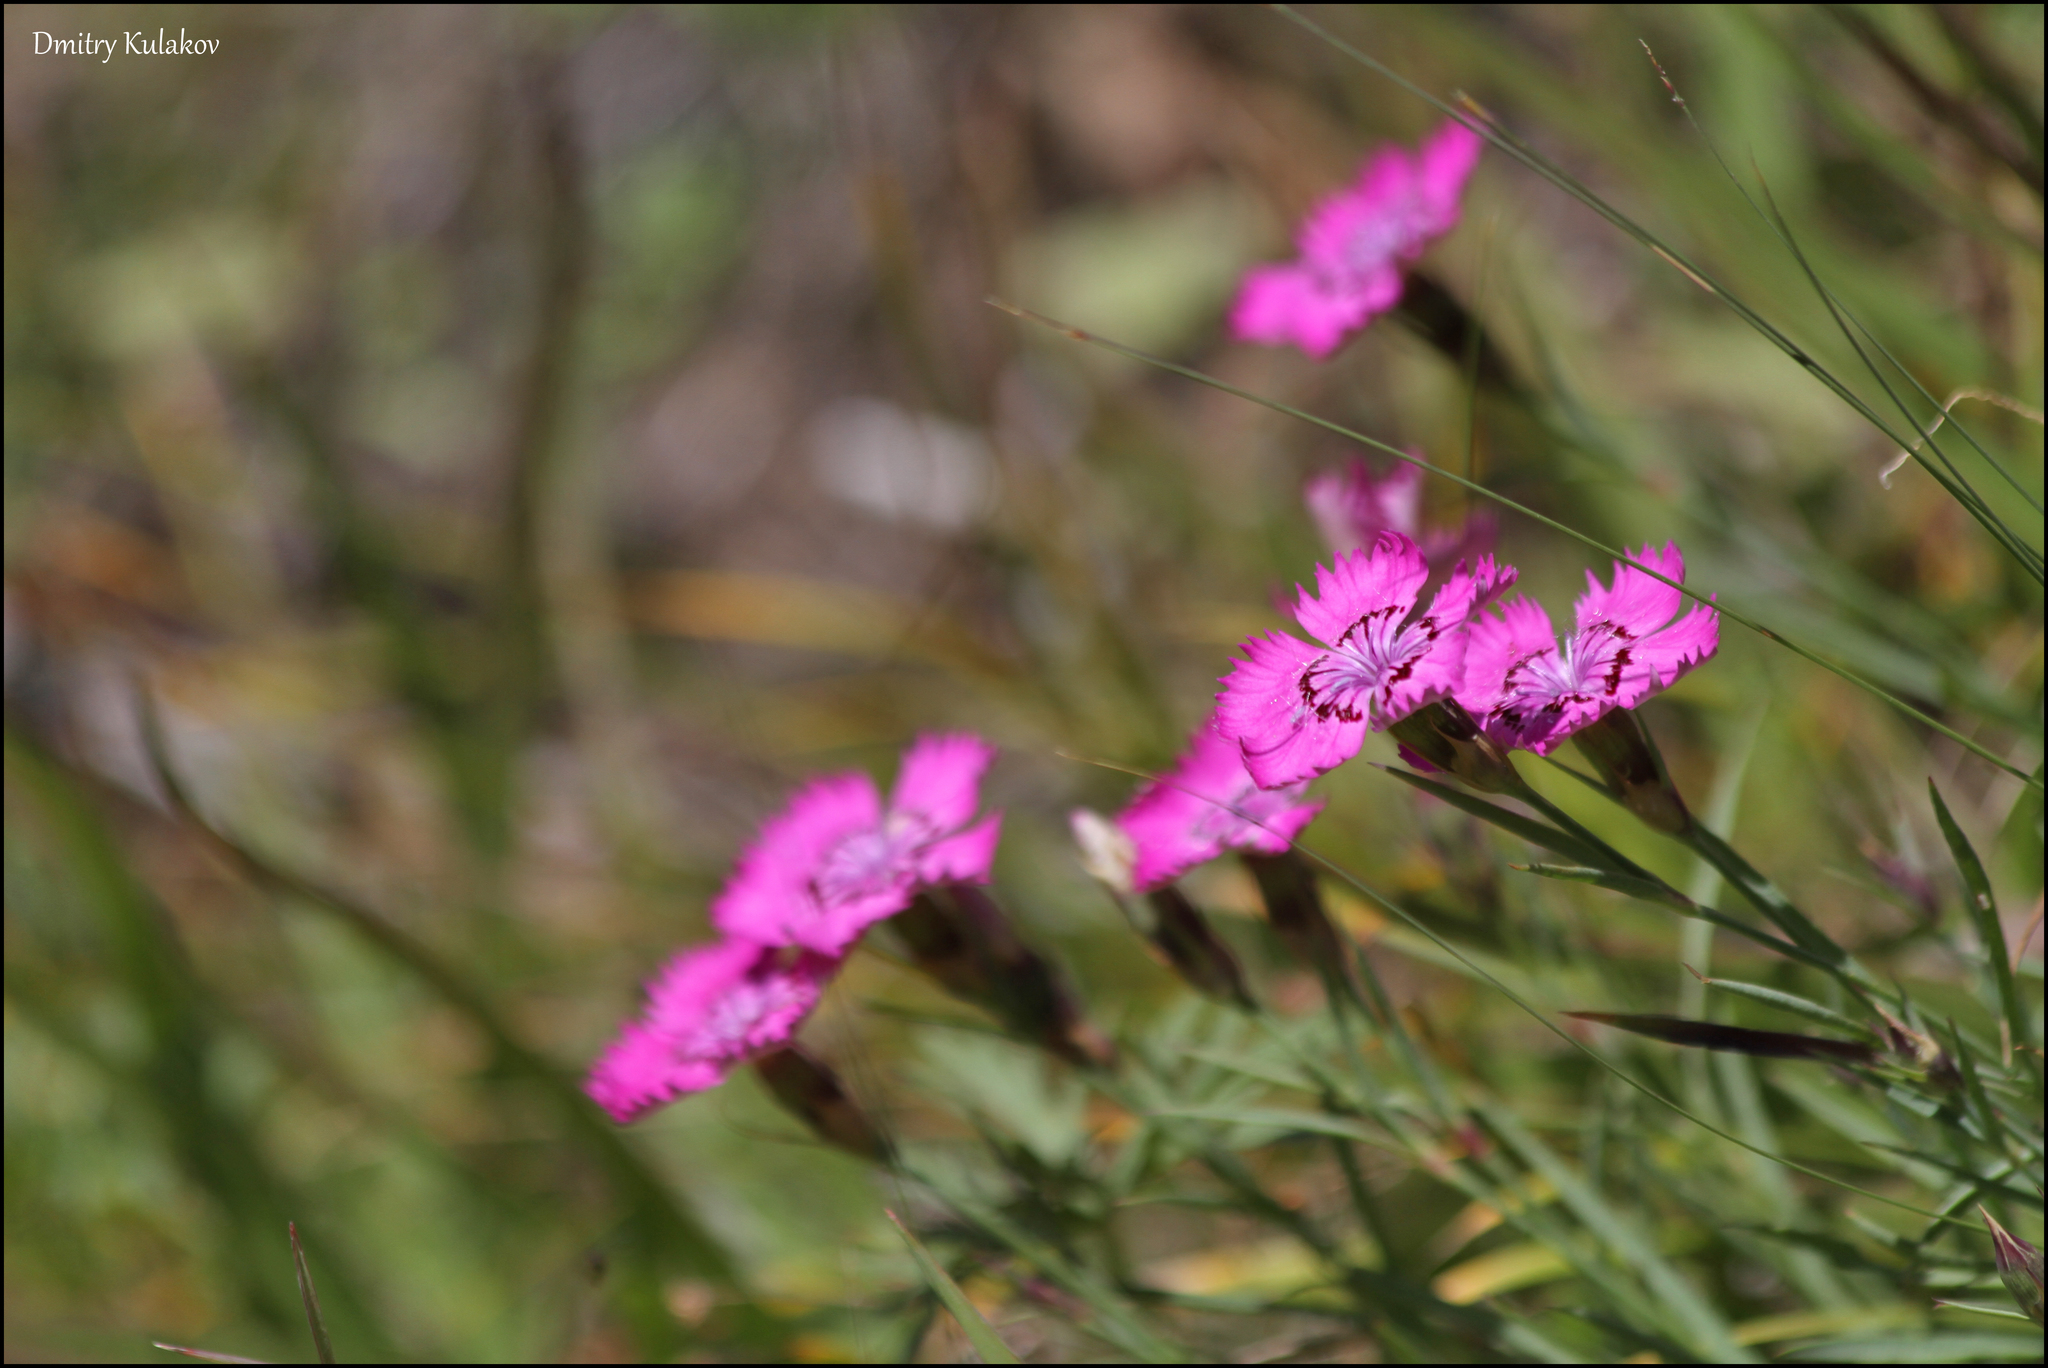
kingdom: Plantae
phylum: Tracheophyta
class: Magnoliopsida
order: Caryophyllales
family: Caryophyllaceae
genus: Dianthus
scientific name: Dianthus chinensis
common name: Rainbow pink
